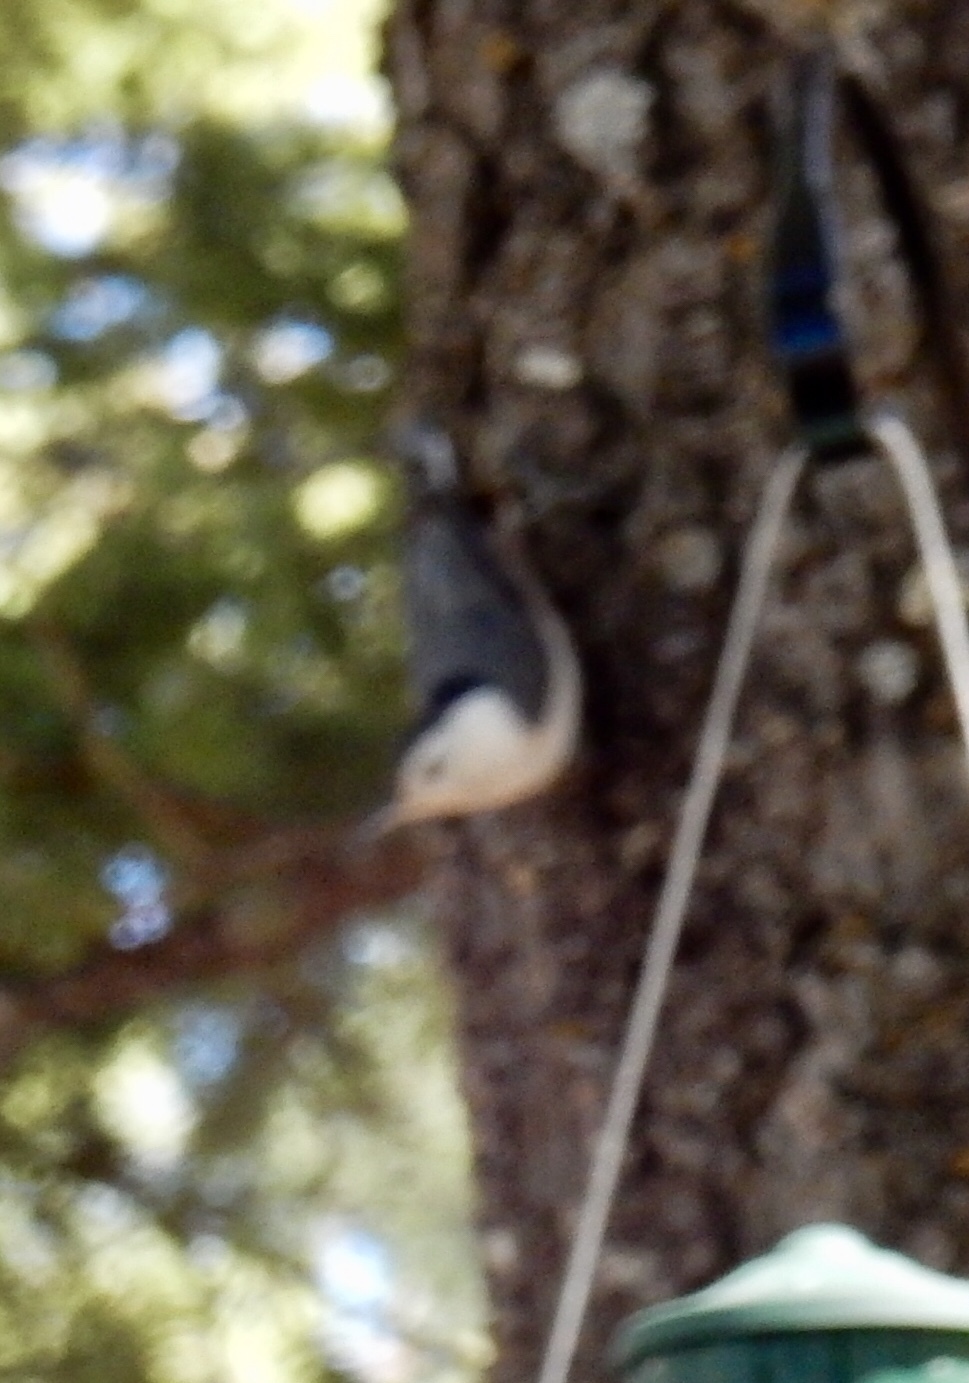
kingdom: Animalia
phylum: Chordata
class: Aves
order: Passeriformes
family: Sittidae
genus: Sitta
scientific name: Sitta carolinensis
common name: White-breasted nuthatch
